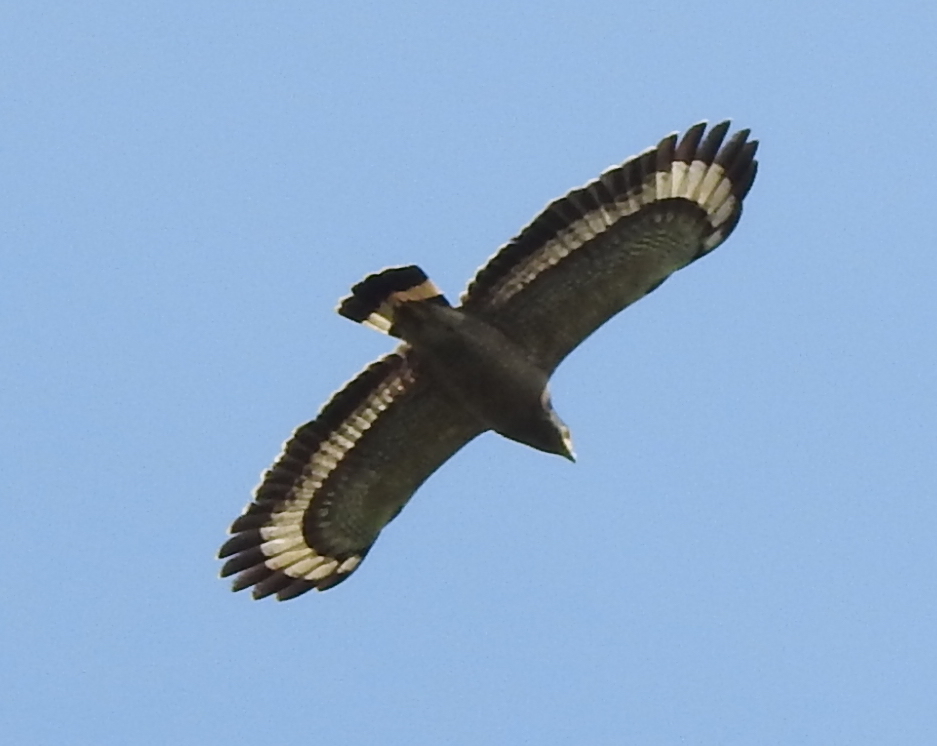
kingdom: Animalia
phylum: Chordata
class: Aves
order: Accipitriformes
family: Accipitridae
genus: Spilornis
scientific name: Spilornis cheela
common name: Crested serpent eagle
